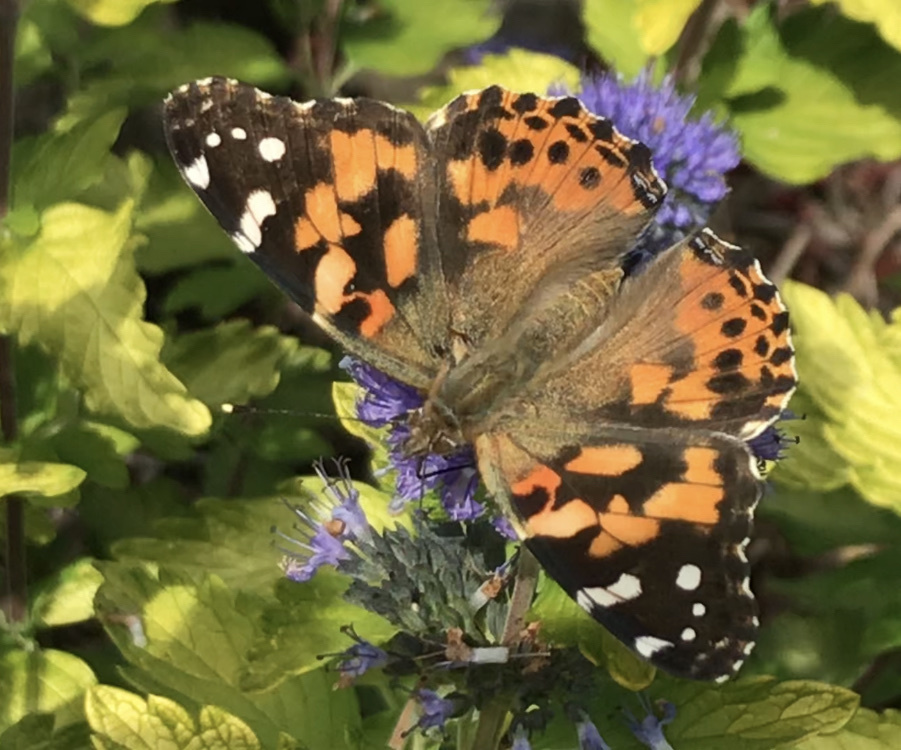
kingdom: Animalia
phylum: Arthropoda
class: Insecta
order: Lepidoptera
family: Nymphalidae
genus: Vanessa
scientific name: Vanessa cardui
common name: Painted lady
